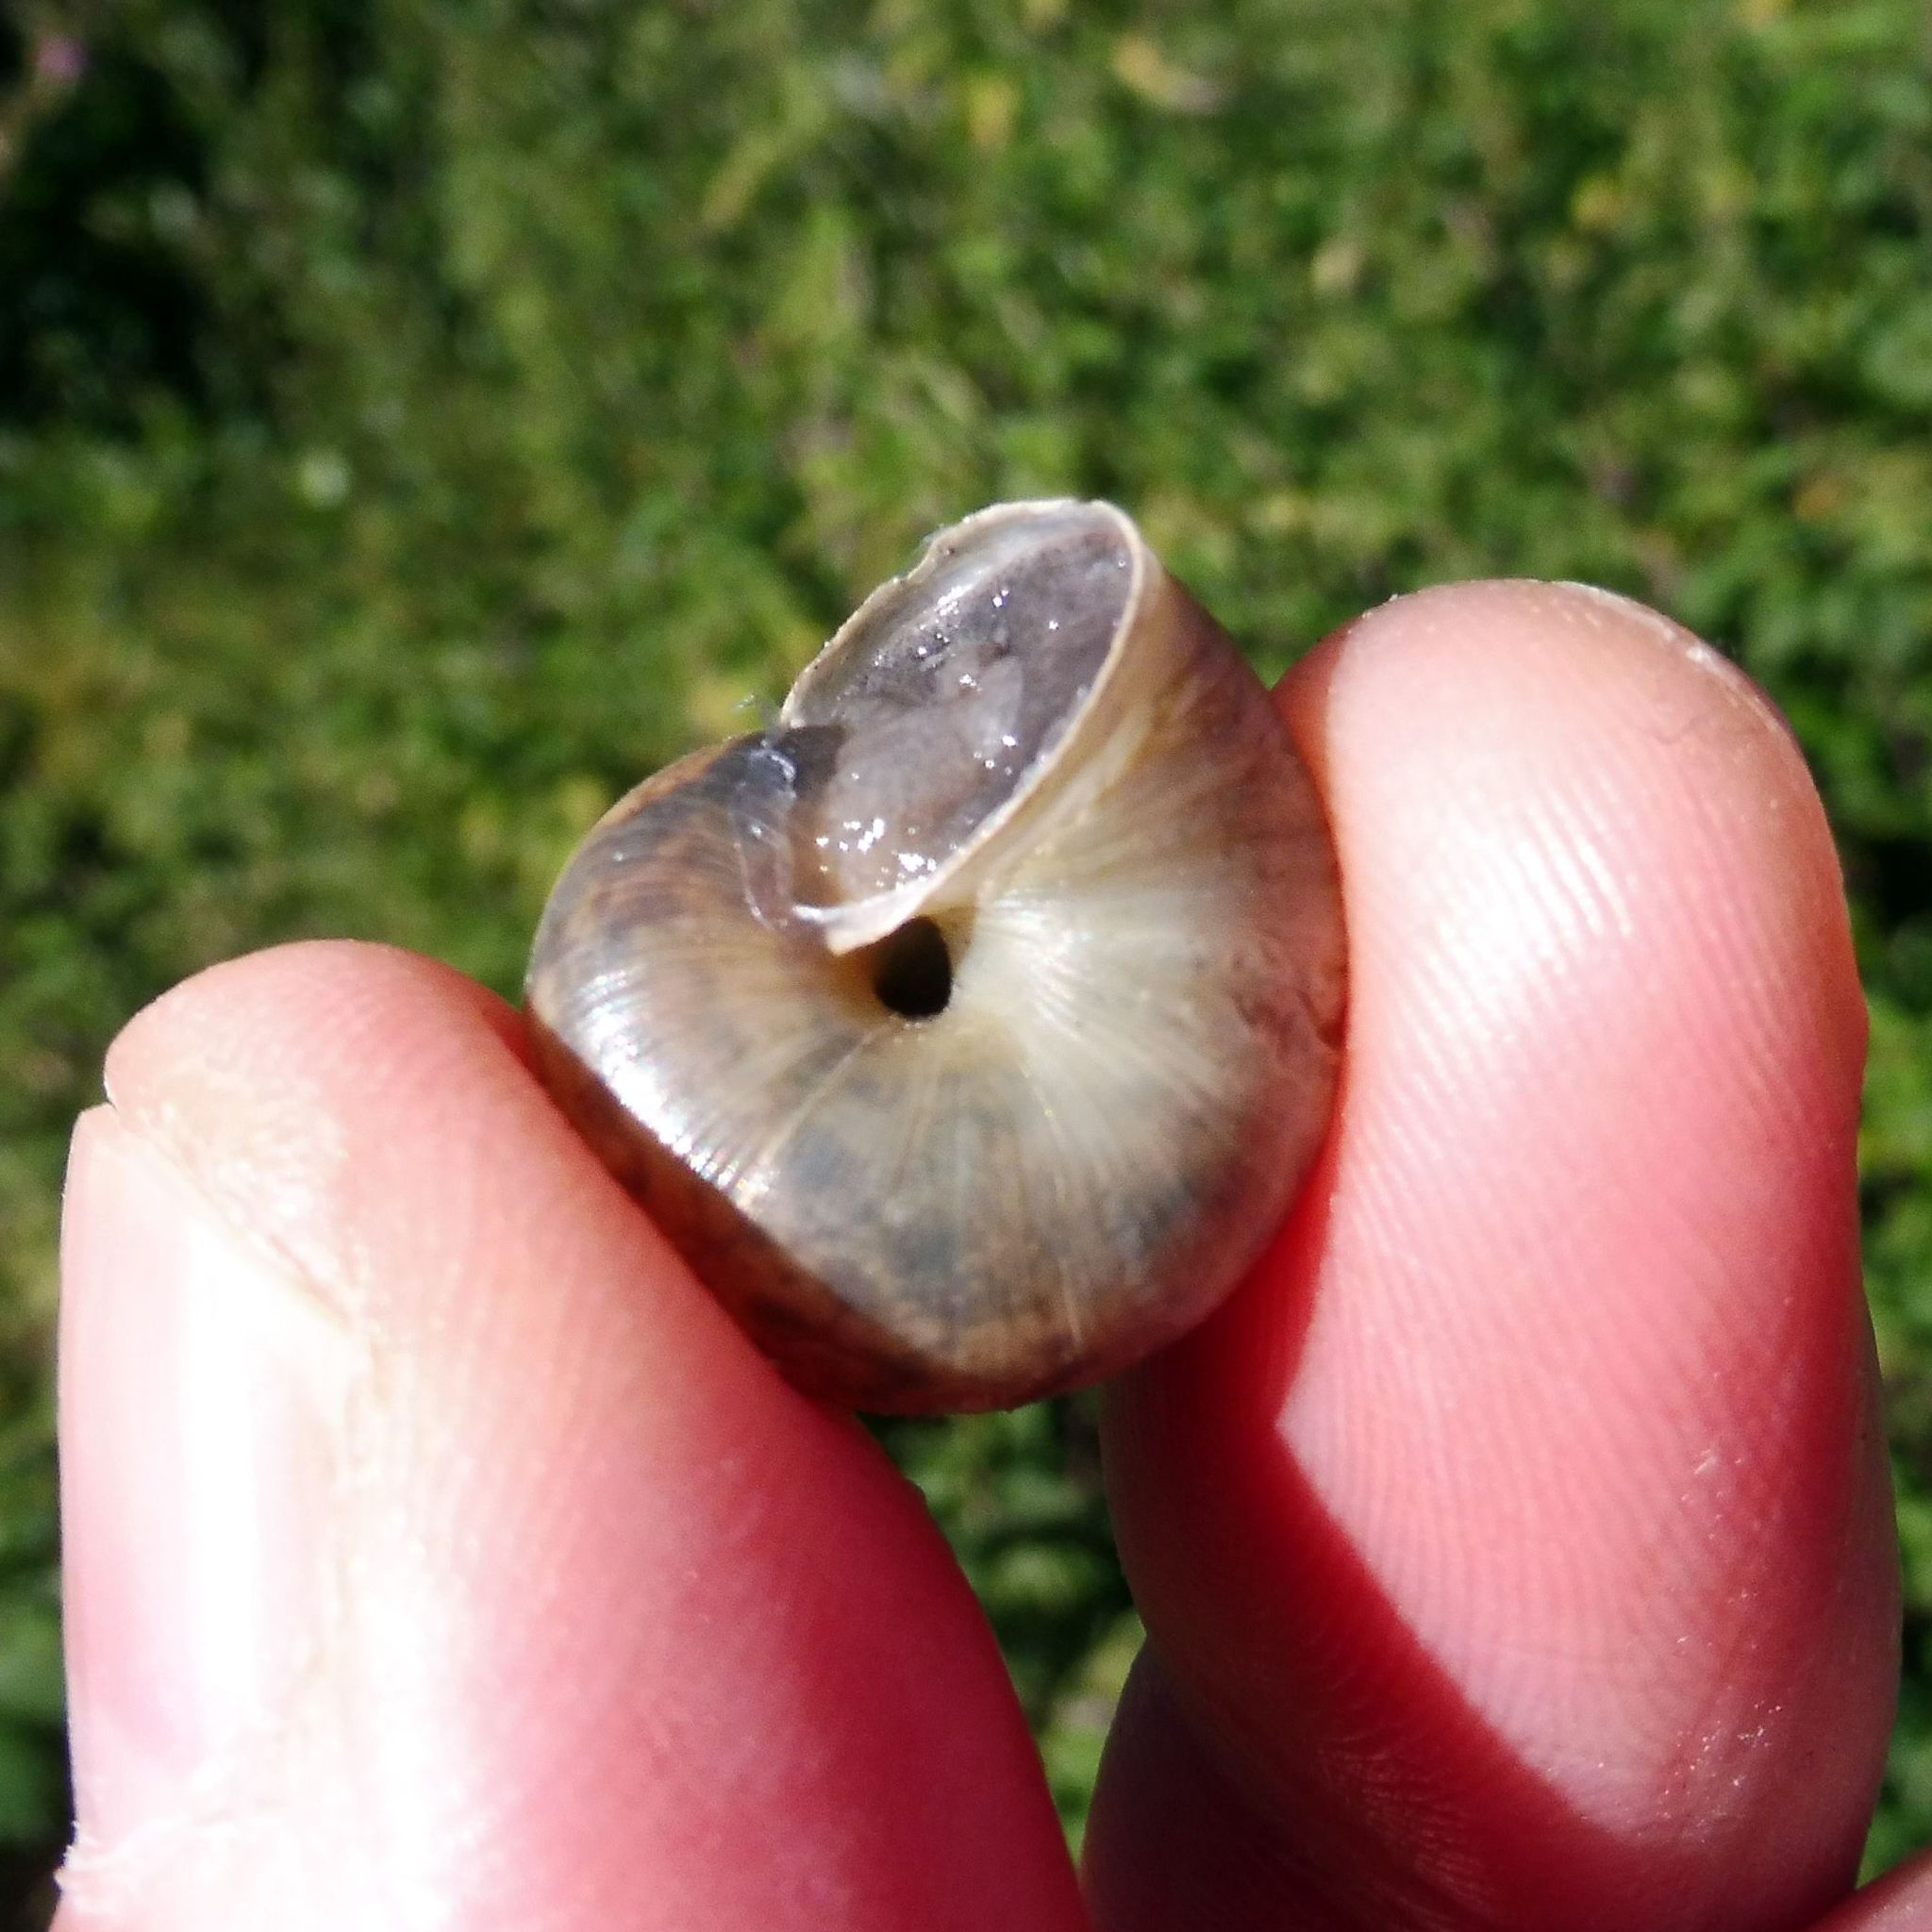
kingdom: Animalia
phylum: Mollusca
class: Gastropoda
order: Stylommatophora
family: Hygromiidae
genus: Monacha
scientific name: Monacha cantiana
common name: Kentish snail
